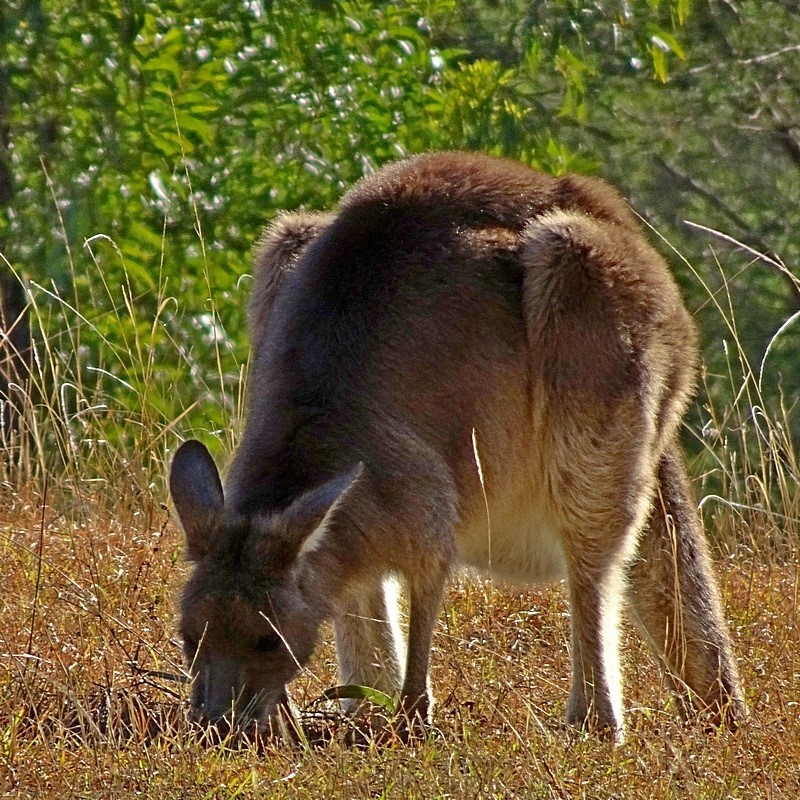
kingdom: Animalia
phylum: Chordata
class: Mammalia
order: Diprotodontia
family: Macropodidae
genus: Macropus
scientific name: Macropus giganteus
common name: Eastern grey kangaroo
